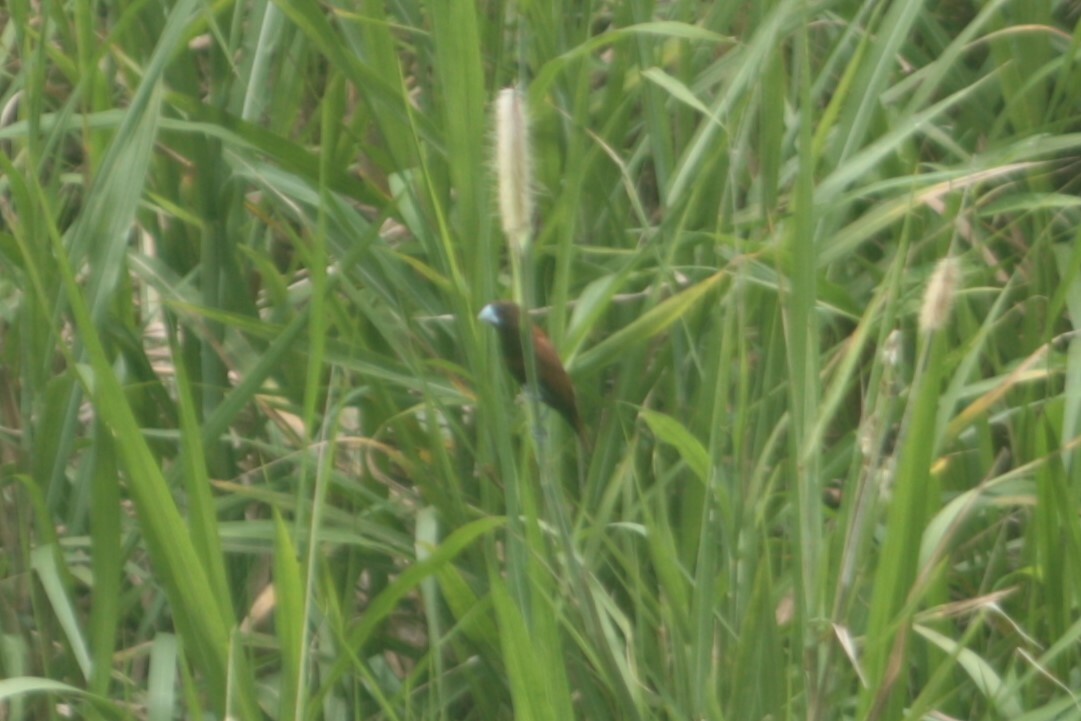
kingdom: Animalia
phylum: Chordata
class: Aves
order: Passeriformes
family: Estrildidae
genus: Lonchura
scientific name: Lonchura atricapilla
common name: Chestnut munia
